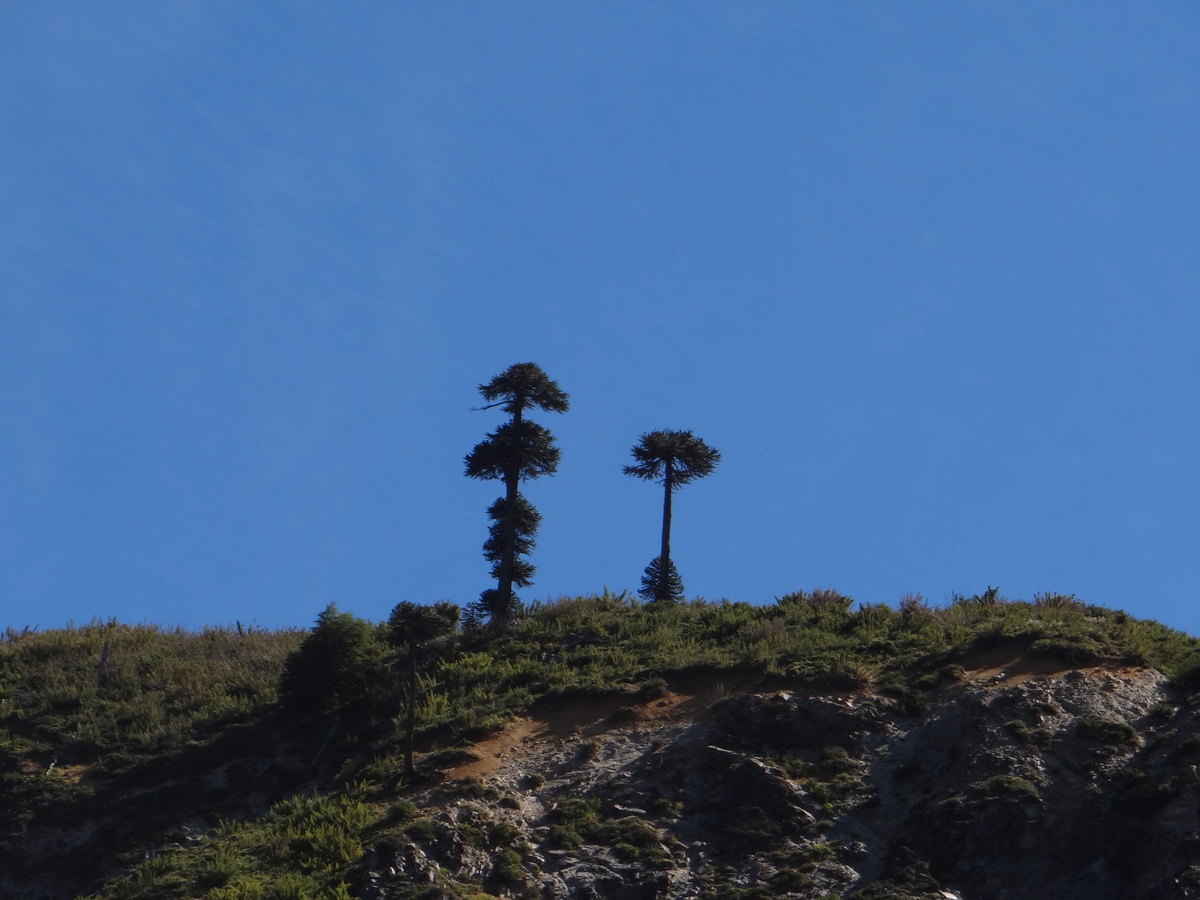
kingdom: Plantae
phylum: Tracheophyta
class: Pinopsida
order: Pinales
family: Araucariaceae
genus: Araucaria
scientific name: Araucaria araucana
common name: Monkey-puzzle
